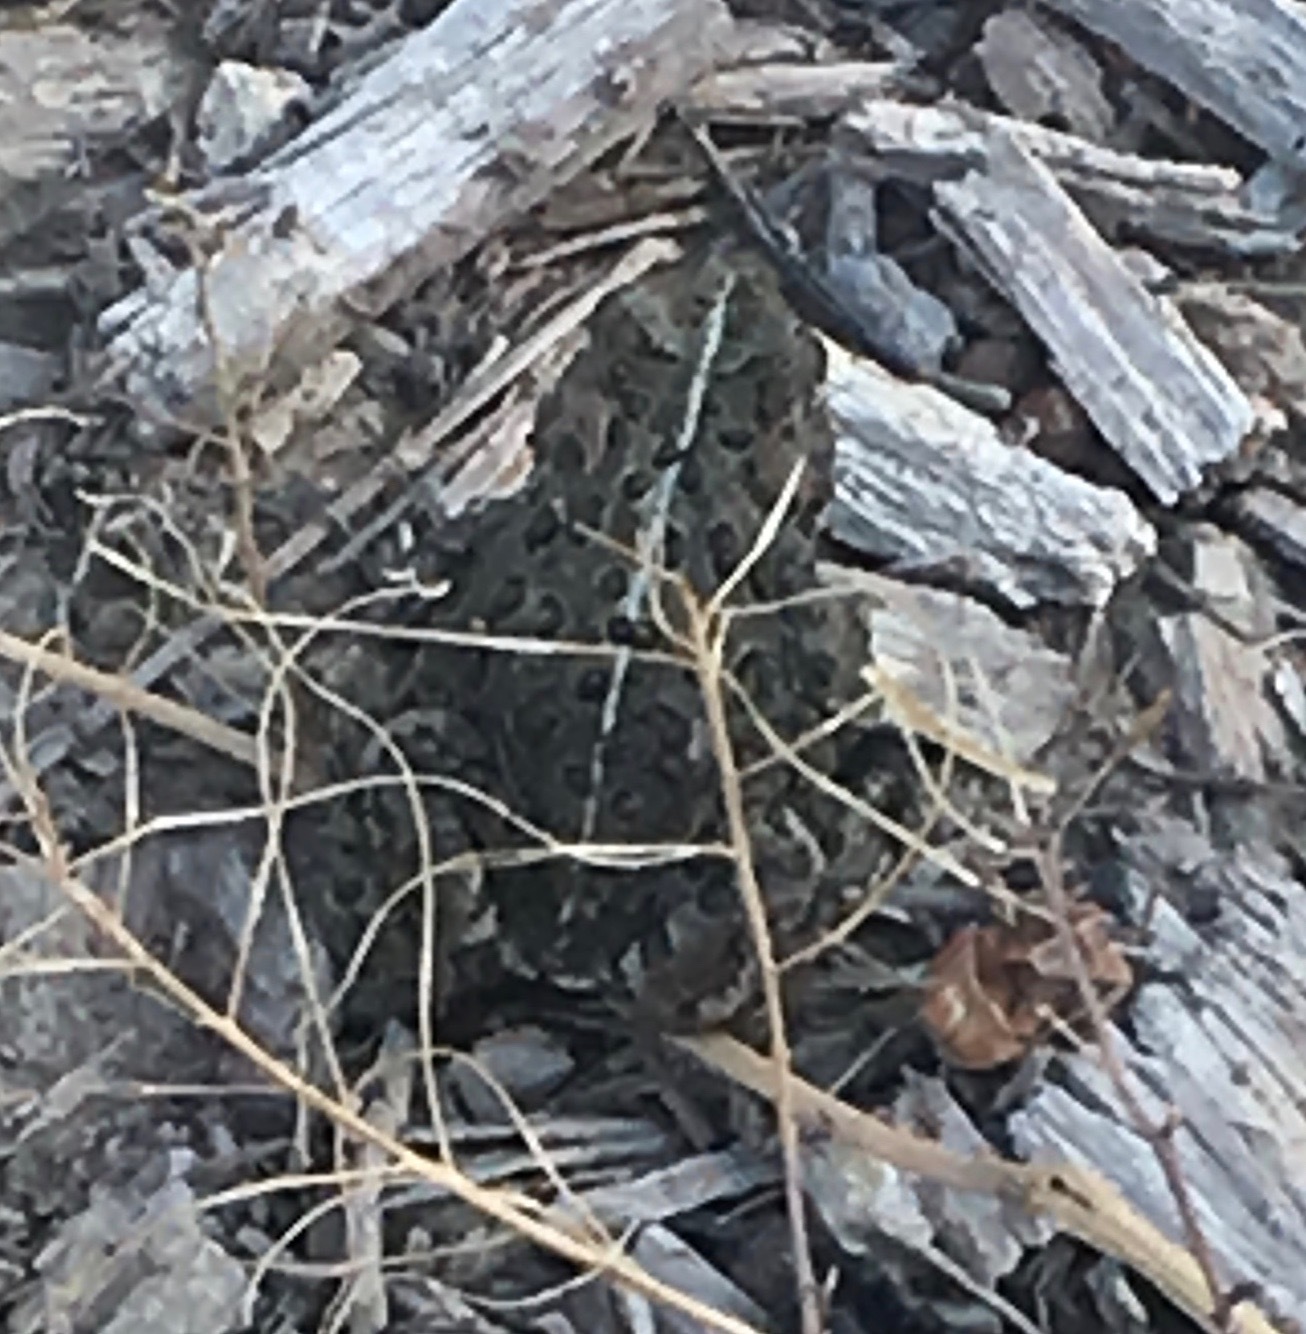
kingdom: Animalia
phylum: Chordata
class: Amphibia
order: Anura
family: Bufonidae
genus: Anaxyrus
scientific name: Anaxyrus boreas
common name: Western toad
